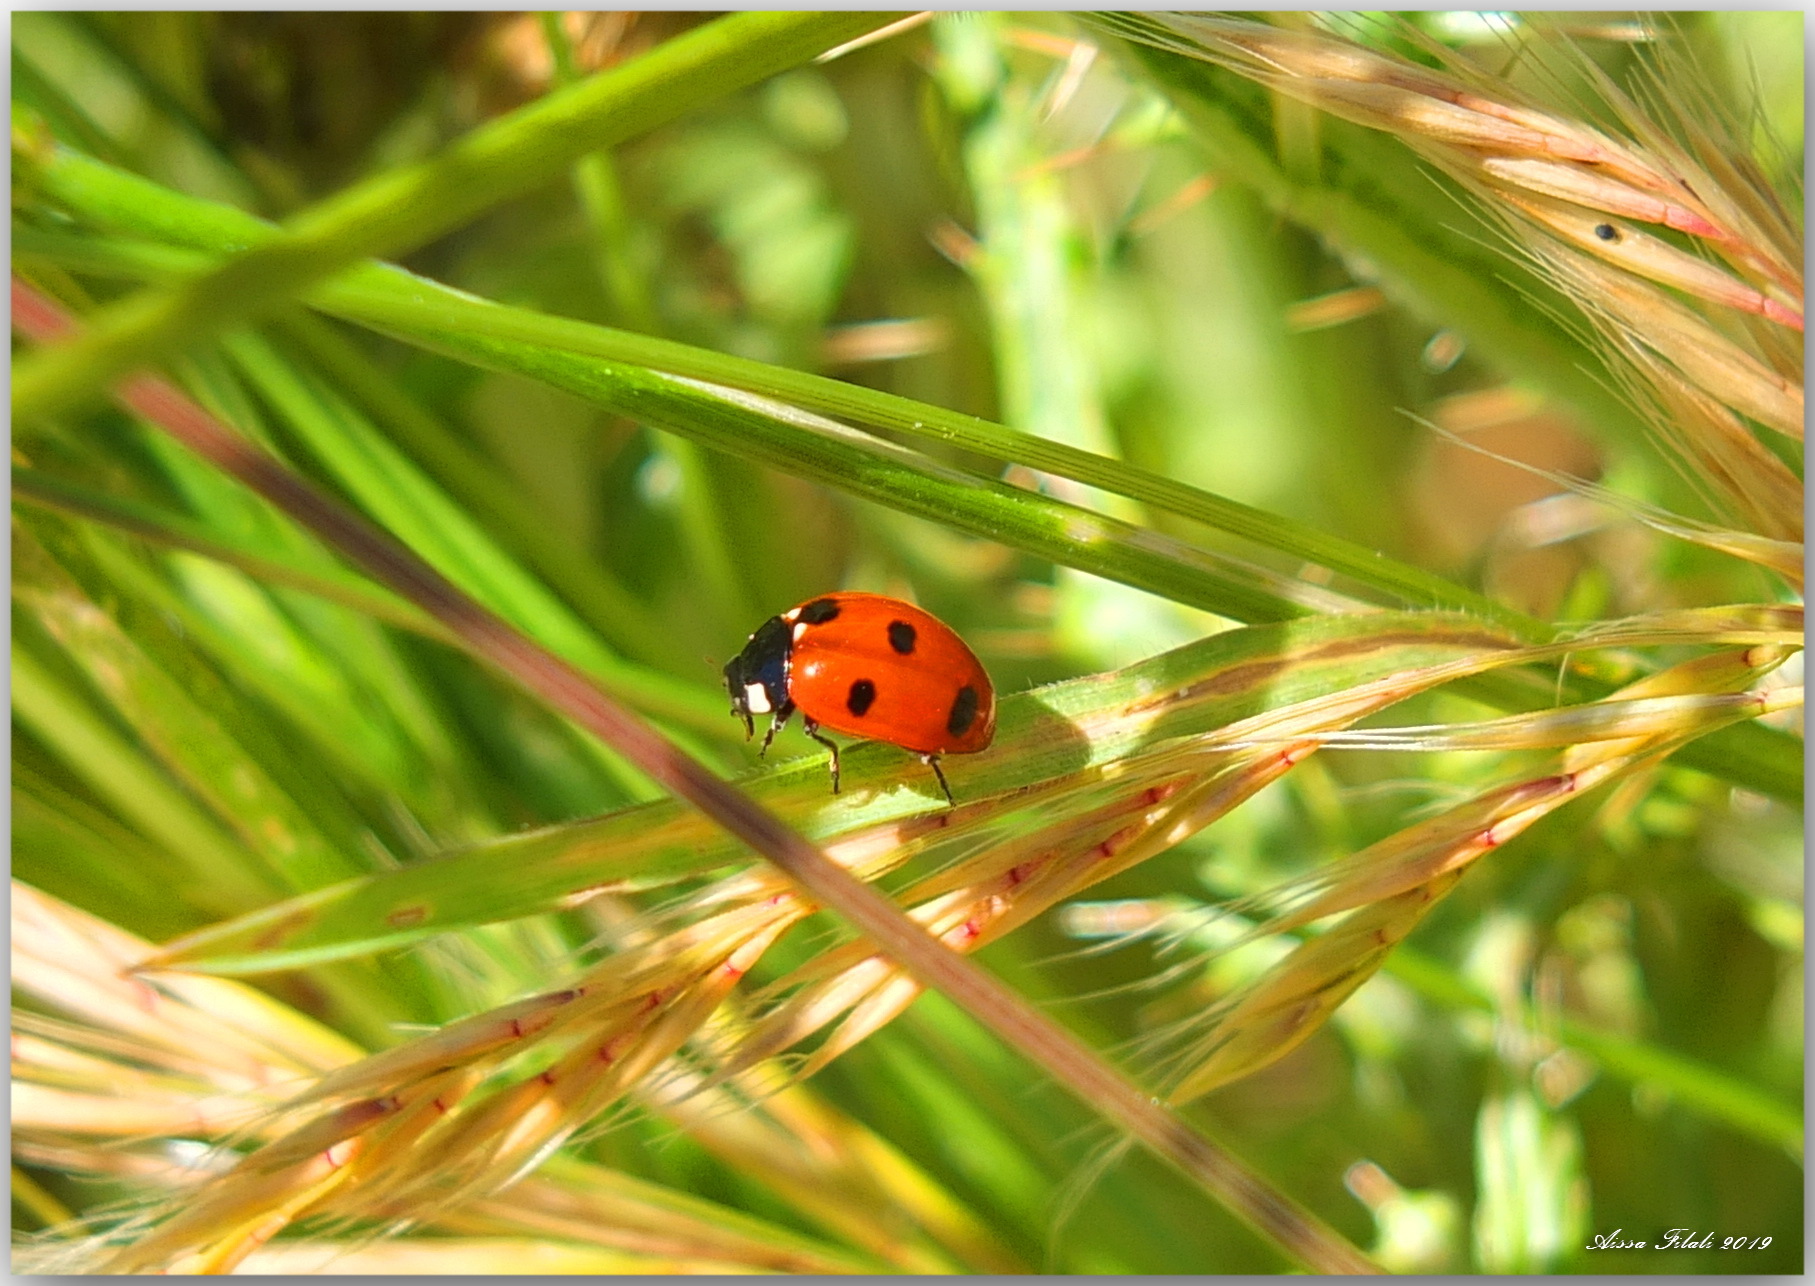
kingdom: Animalia
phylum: Arthropoda
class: Insecta
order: Coleoptera
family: Coccinellidae
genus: Coccinella
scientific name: Coccinella algerica
